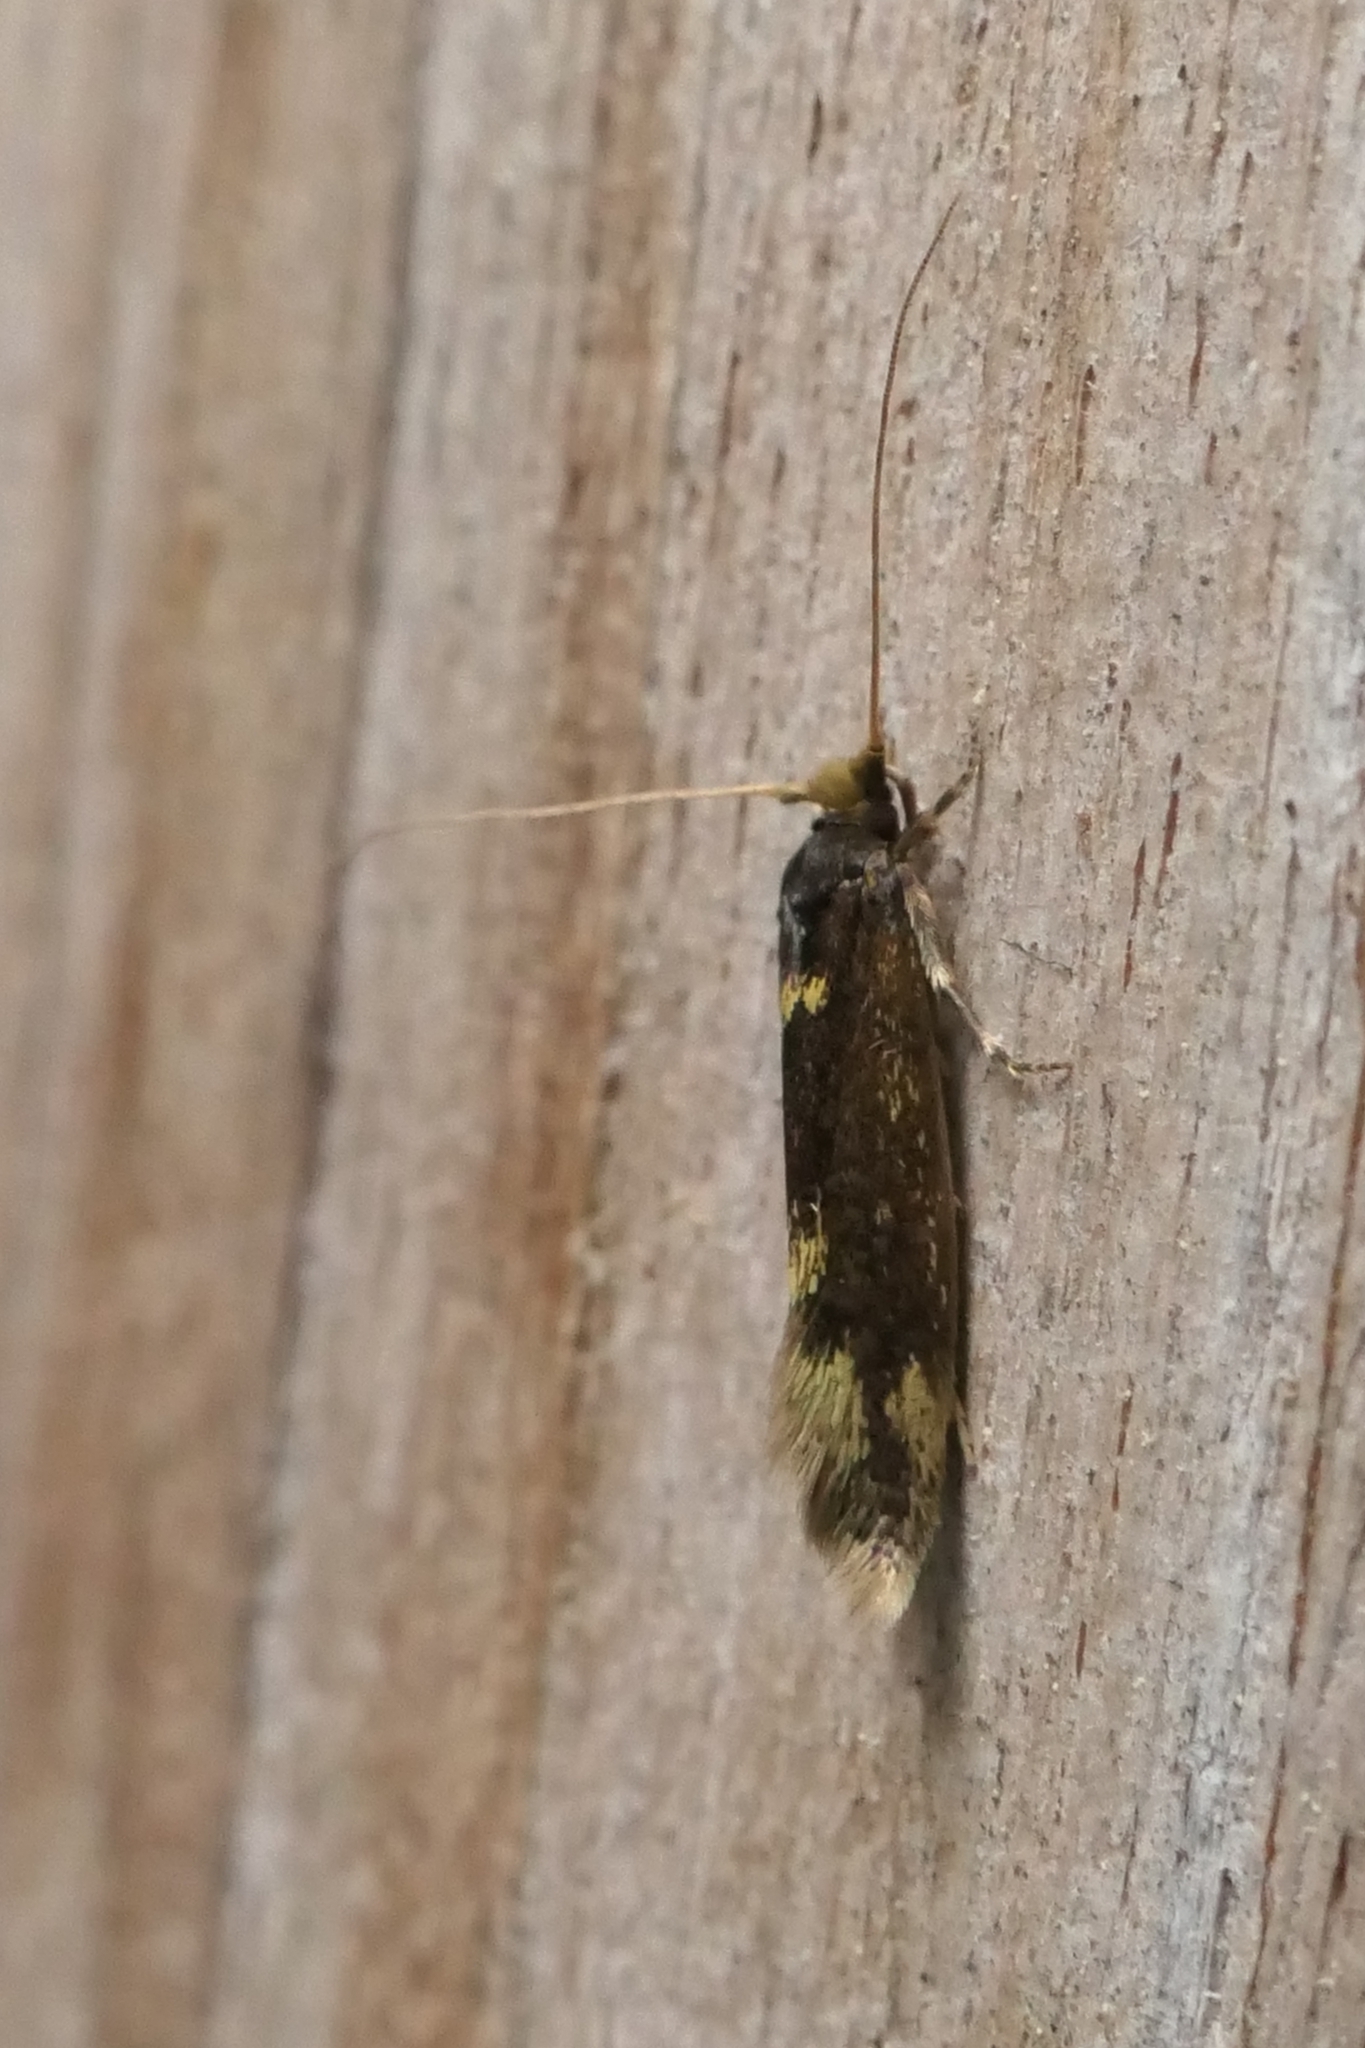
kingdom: Animalia
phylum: Arthropoda
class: Insecta
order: Lepidoptera
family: Tineidae
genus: Opogona
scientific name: Opogona omoscopa
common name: Moth
